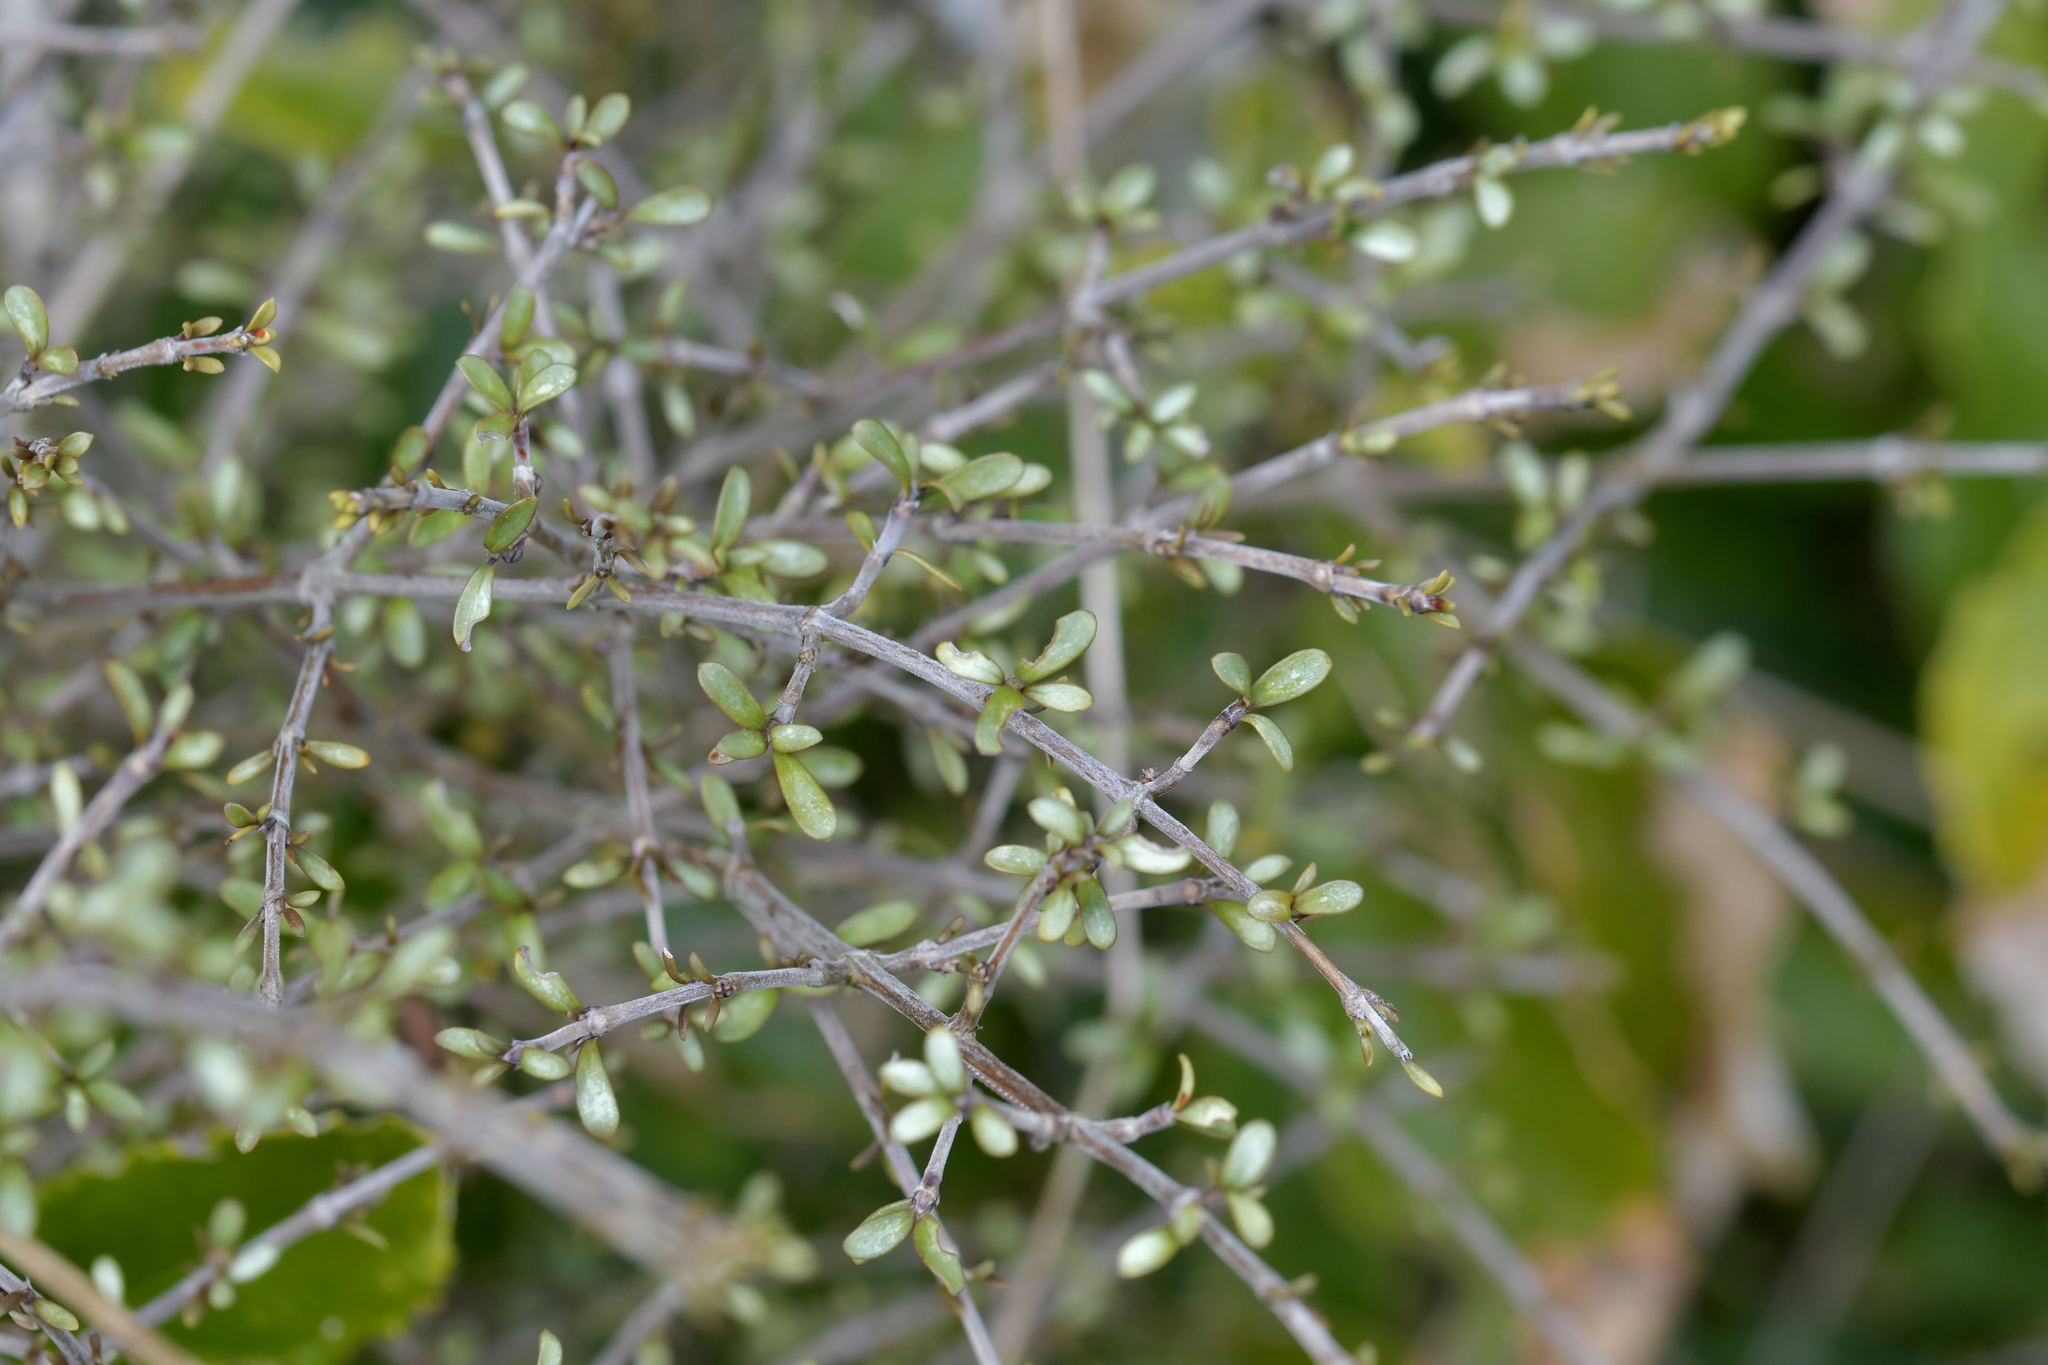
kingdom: Plantae
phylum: Tracheophyta
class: Magnoliopsida
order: Gentianales
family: Rubiaceae
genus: Coprosma
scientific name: Coprosma dumosa
